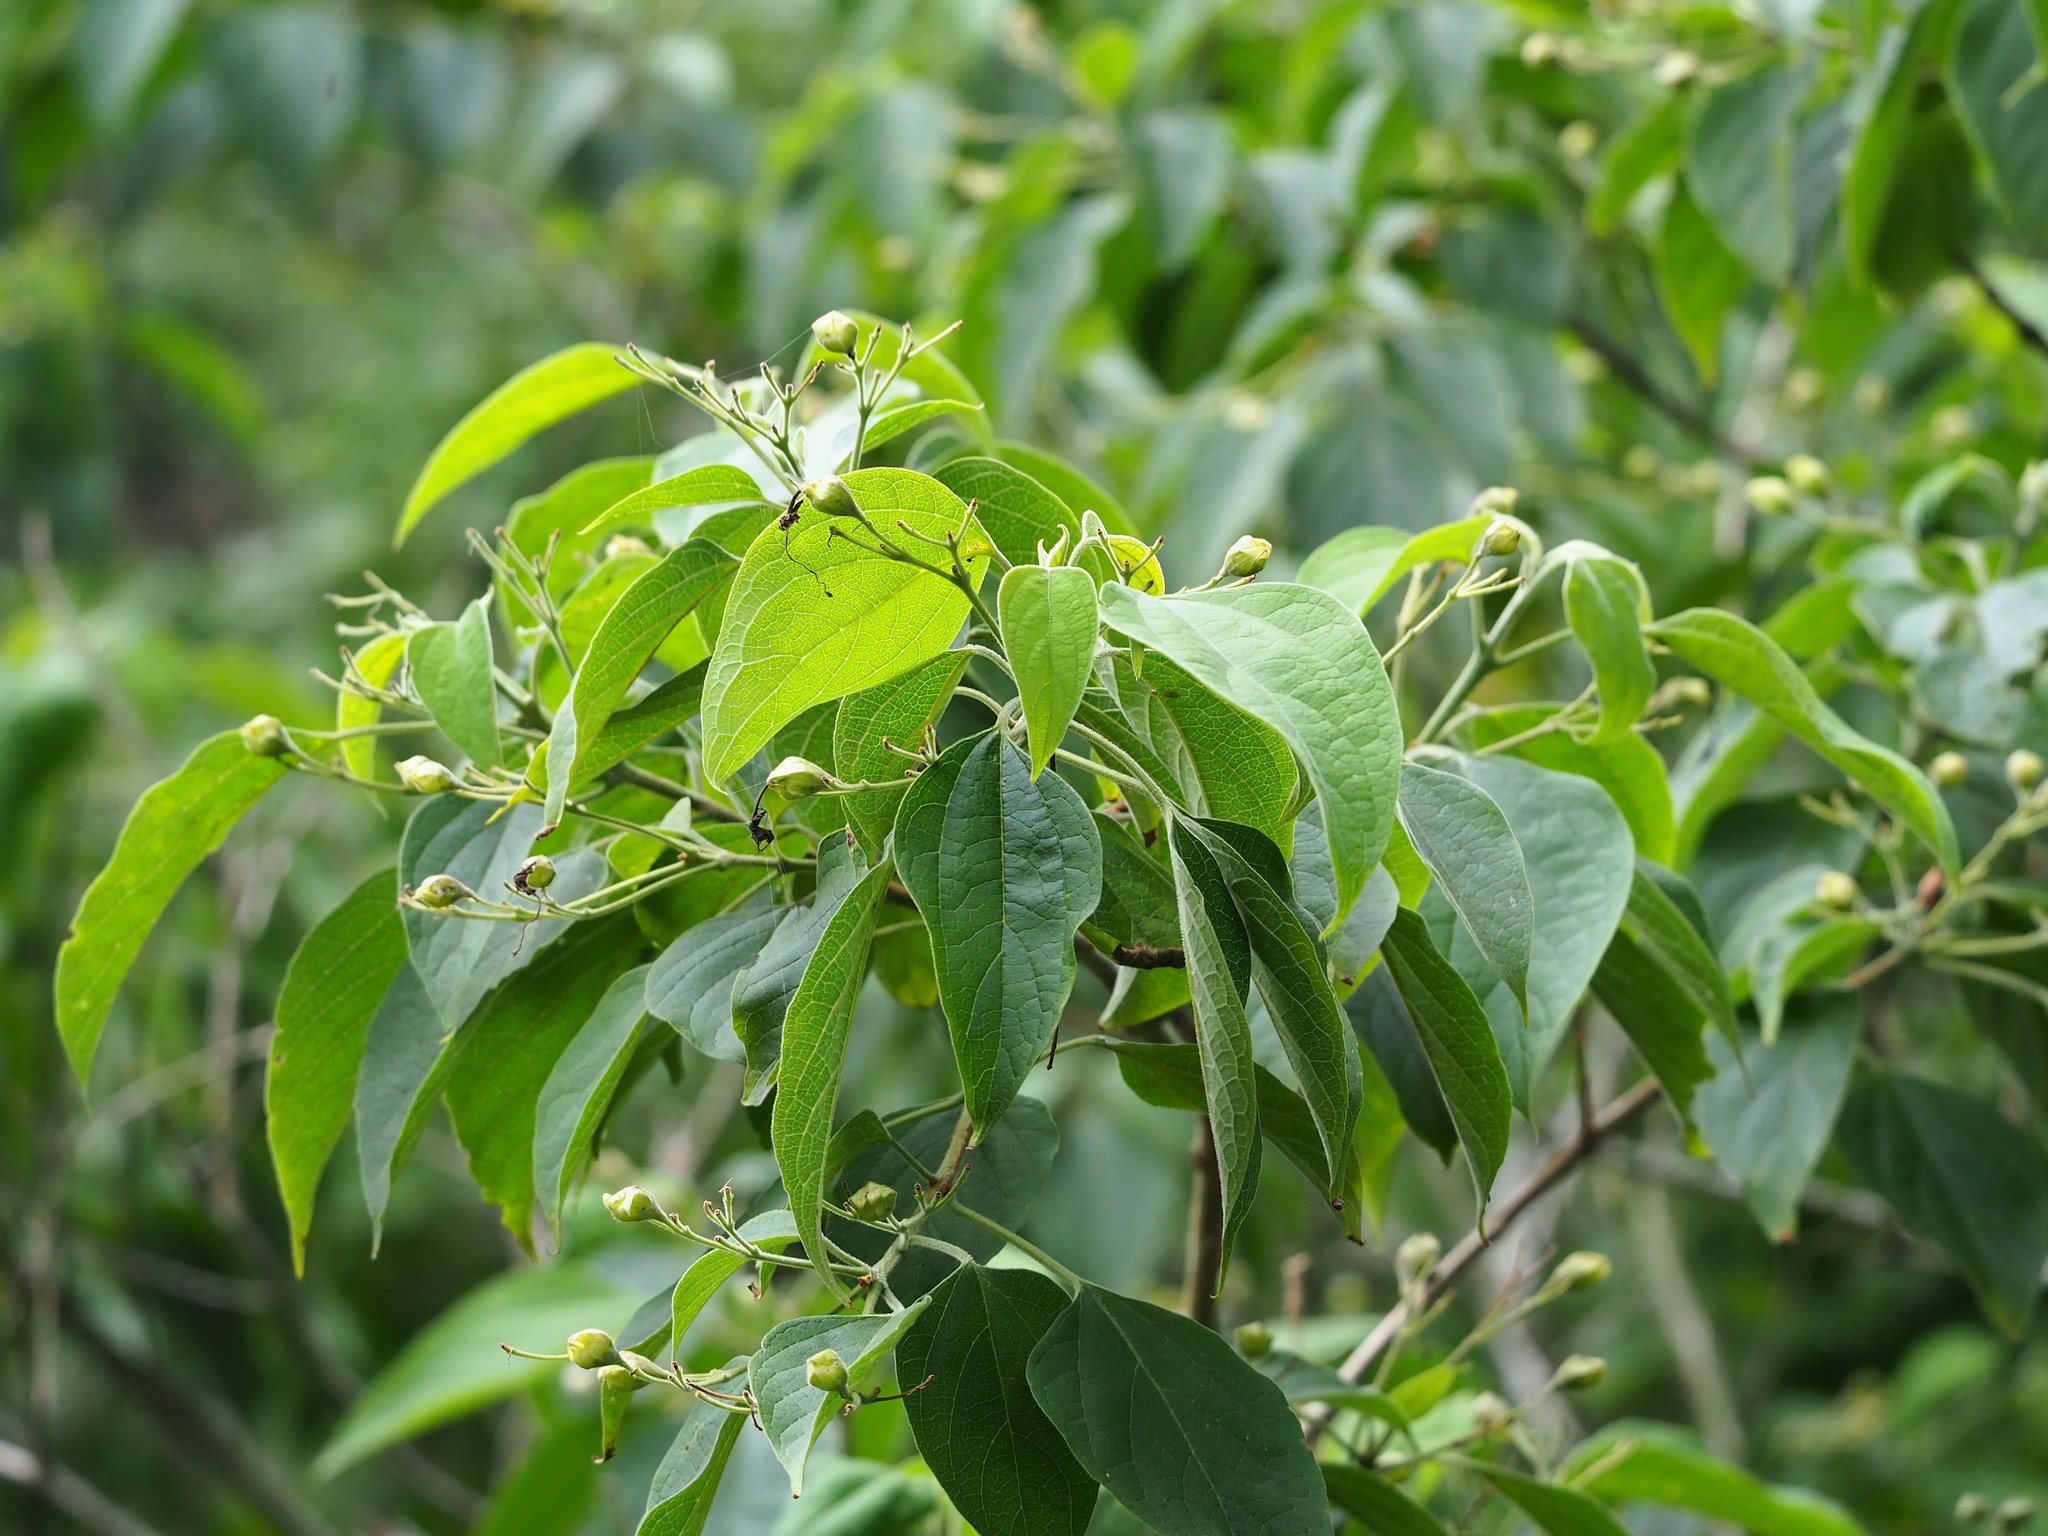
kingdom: Plantae
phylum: Tracheophyta
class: Magnoliopsida
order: Lamiales
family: Lamiaceae
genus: Clerodendrum
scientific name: Clerodendrum trichotomum
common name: Harlequin glorybower
